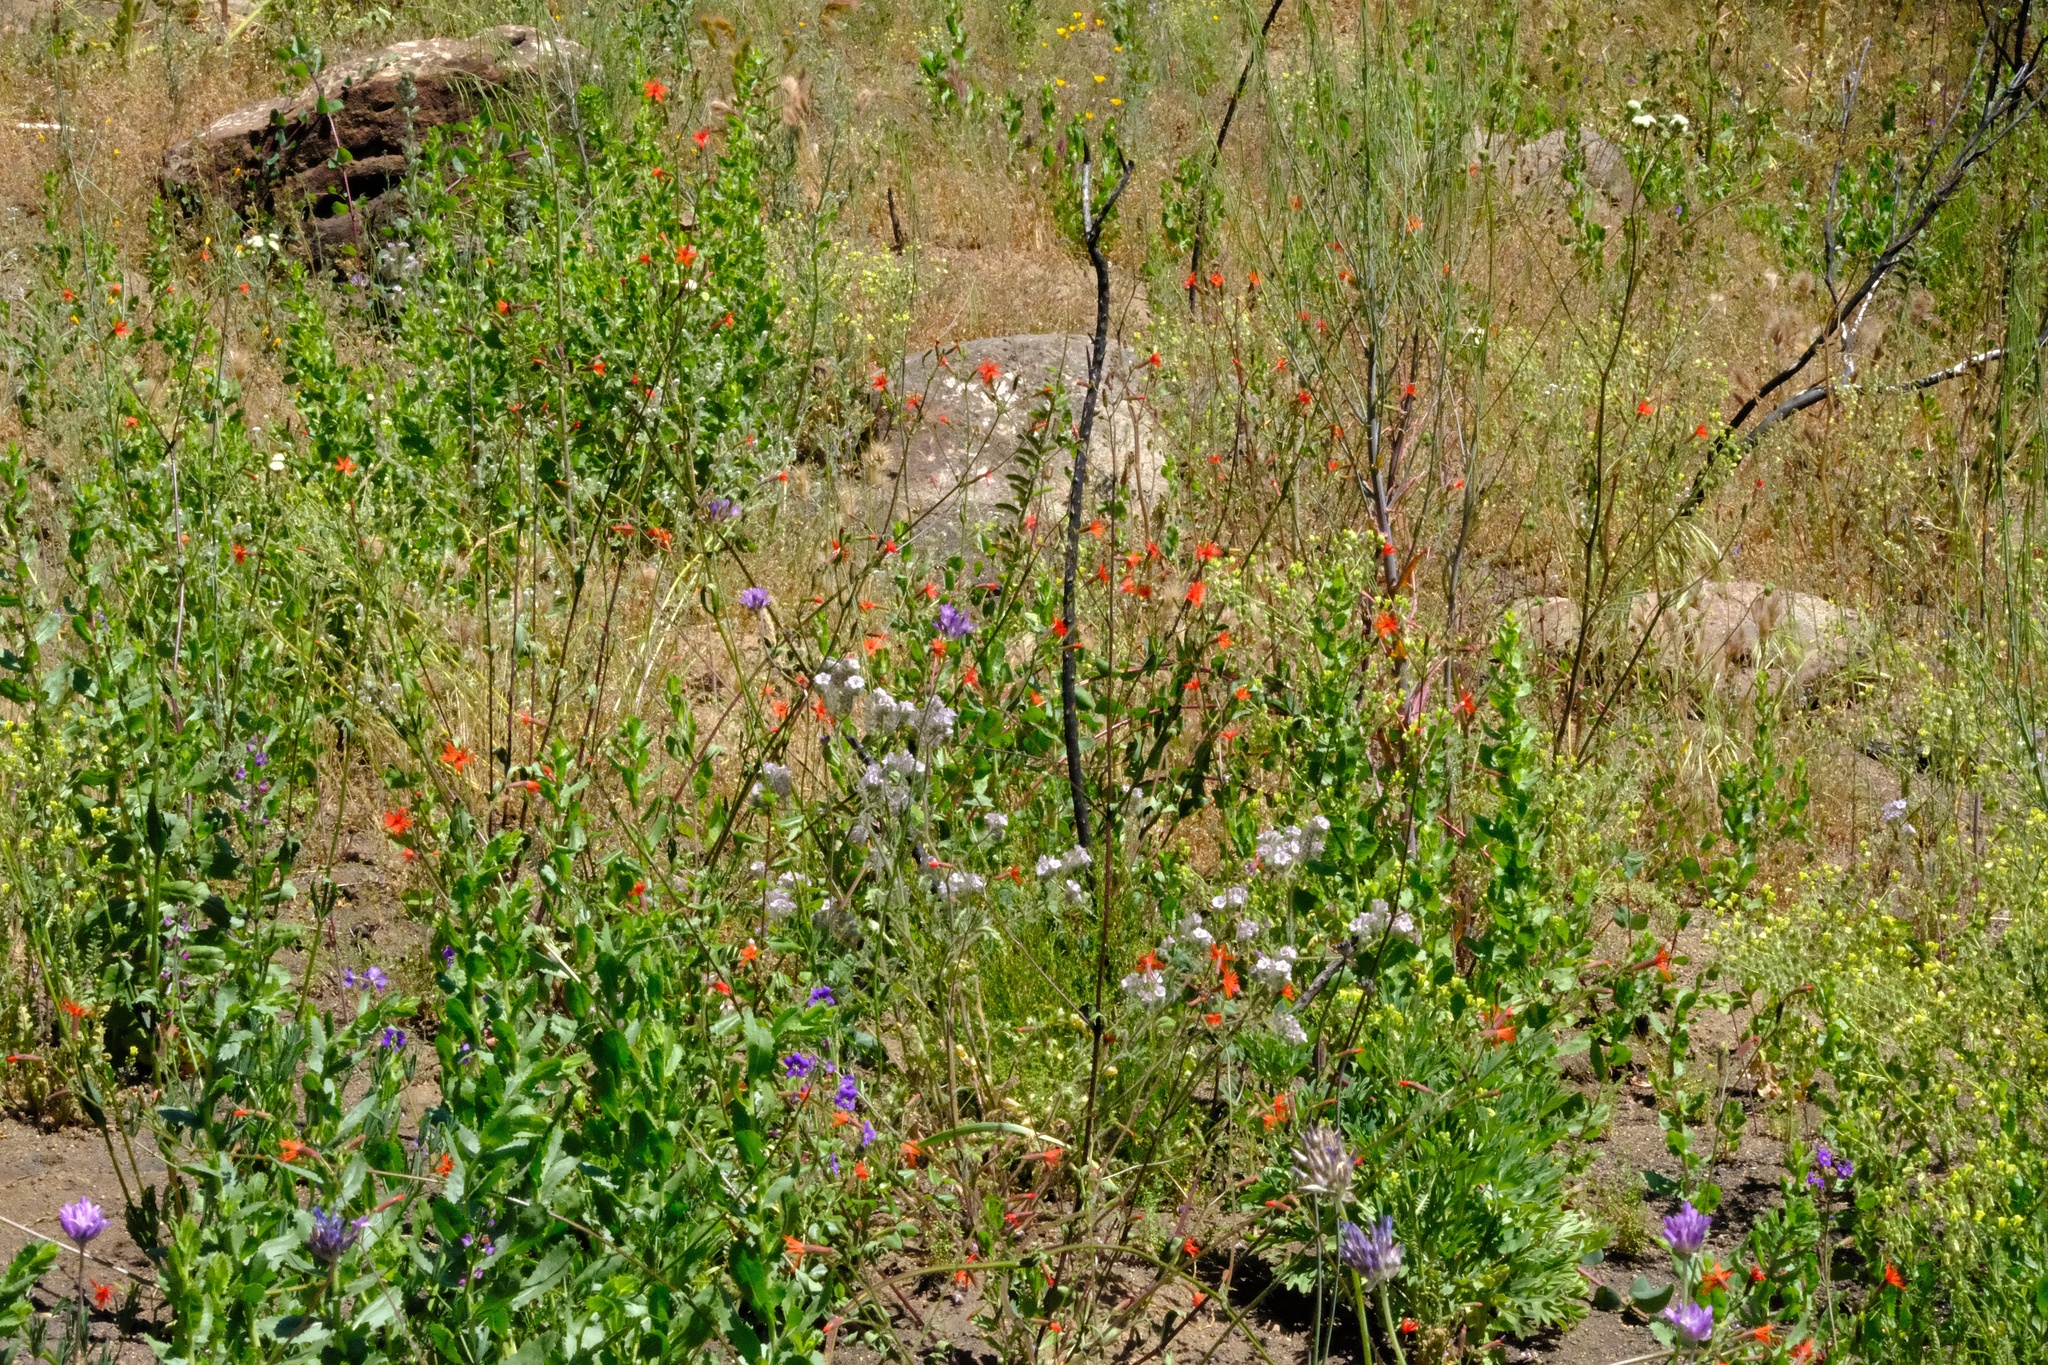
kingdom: Plantae
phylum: Tracheophyta
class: Magnoliopsida
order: Caryophyllales
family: Caryophyllaceae
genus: Silene
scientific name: Silene laciniata
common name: Indian-pink
